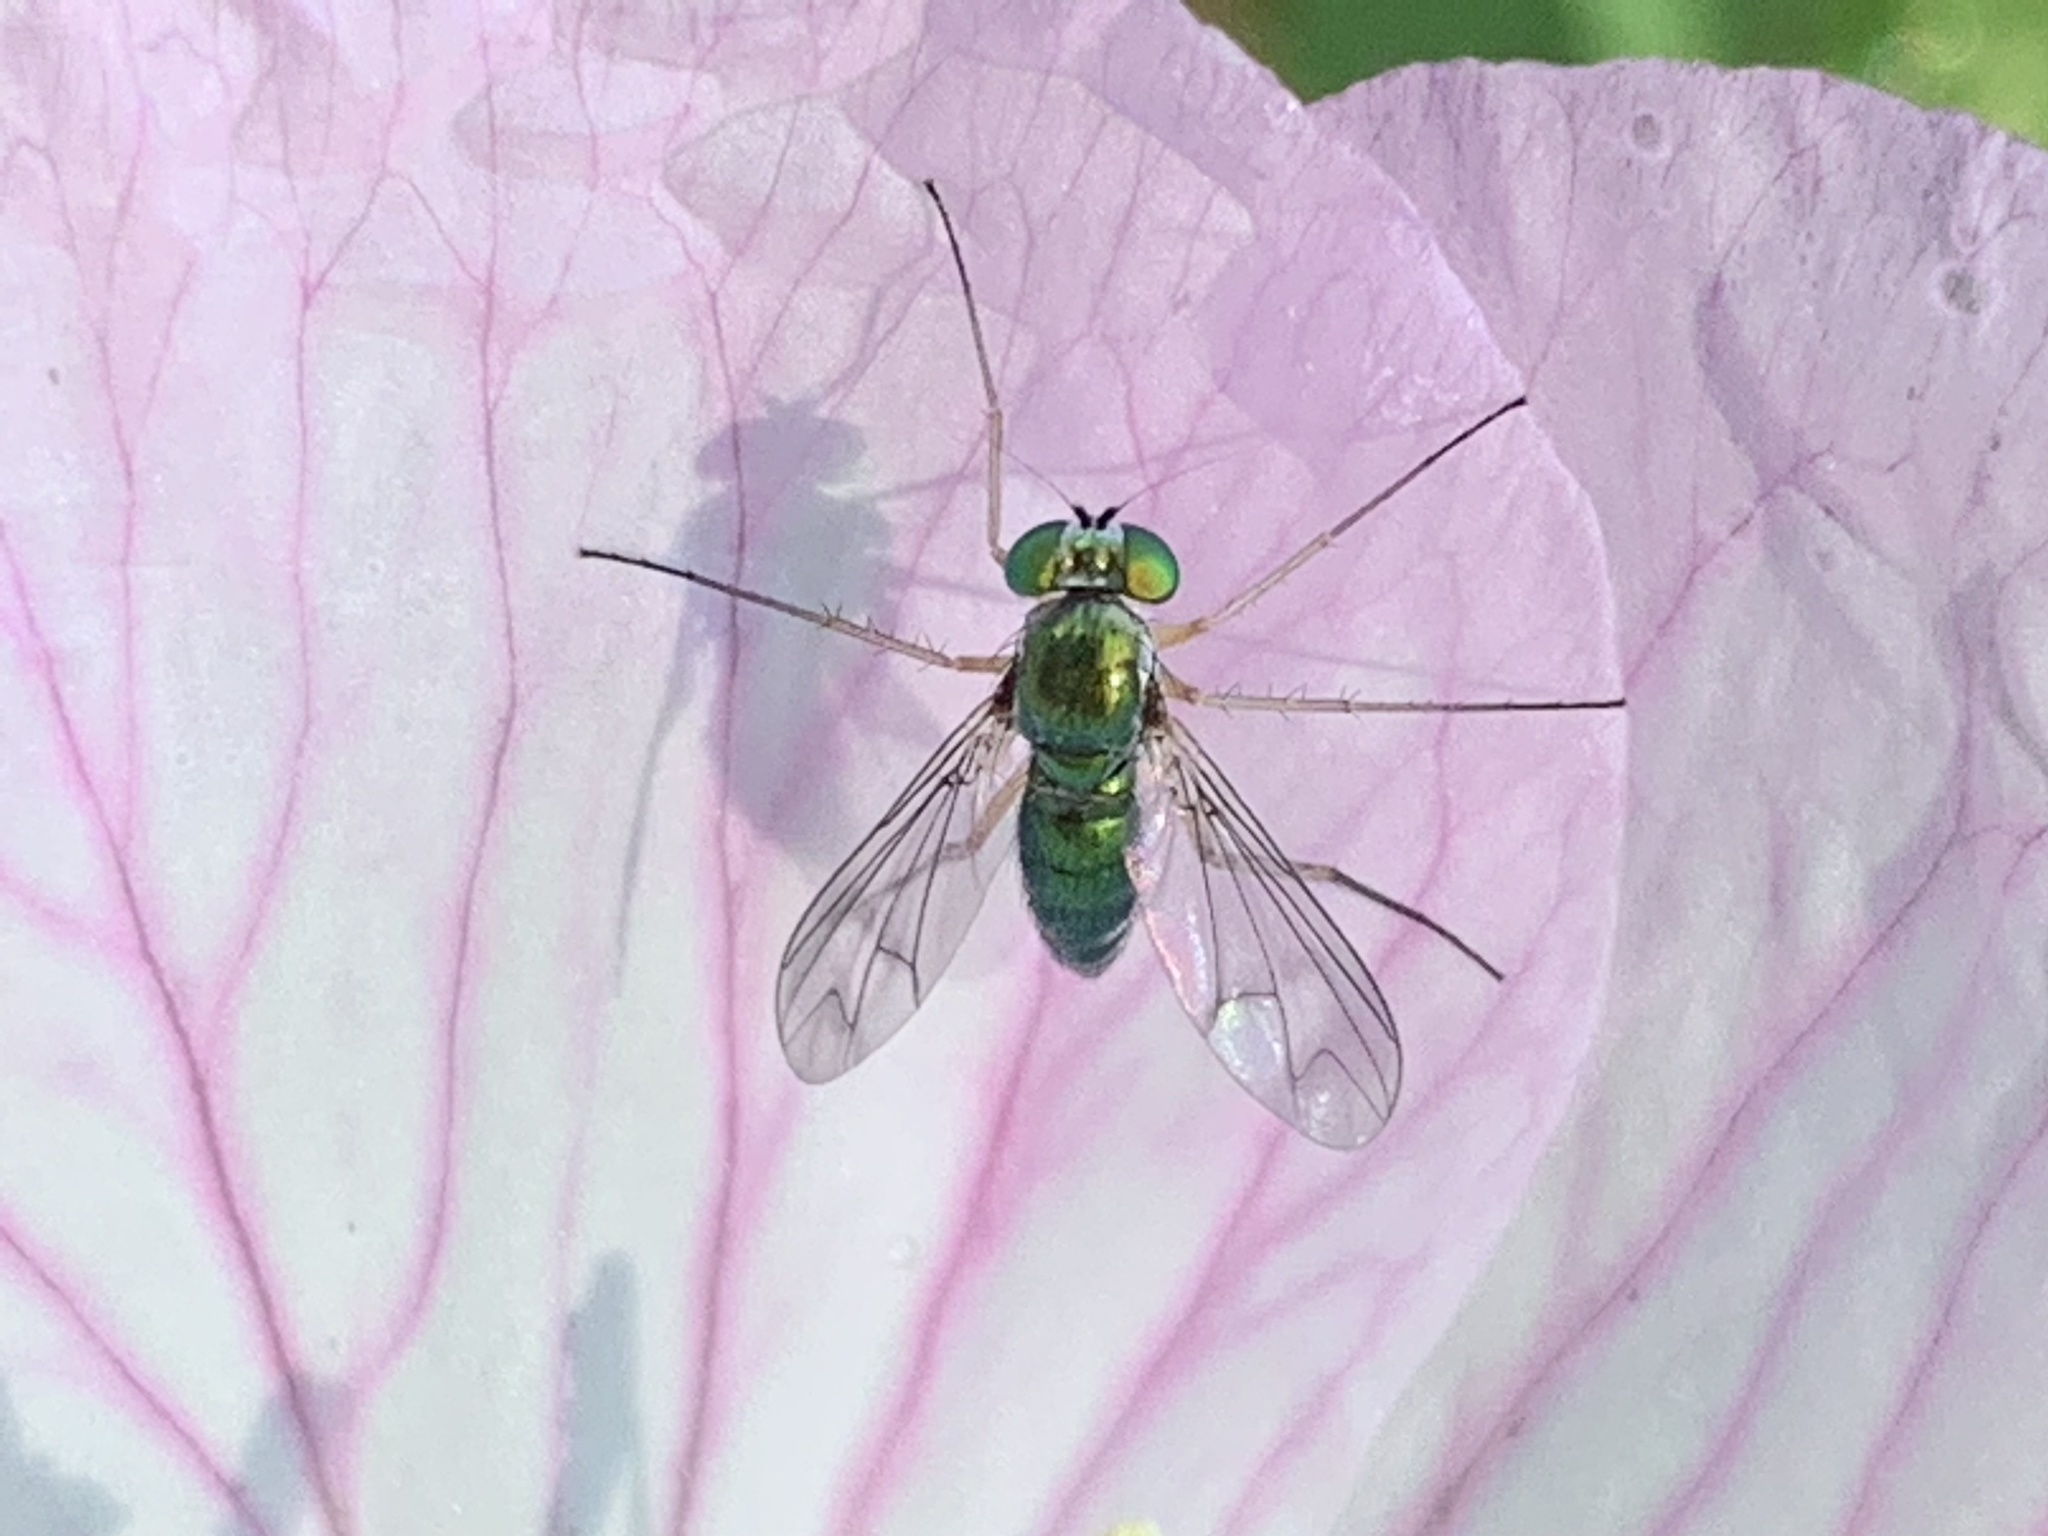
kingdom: Animalia
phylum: Arthropoda
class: Insecta
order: Diptera
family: Dolichopodidae
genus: Condylostylus
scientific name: Condylostylus
